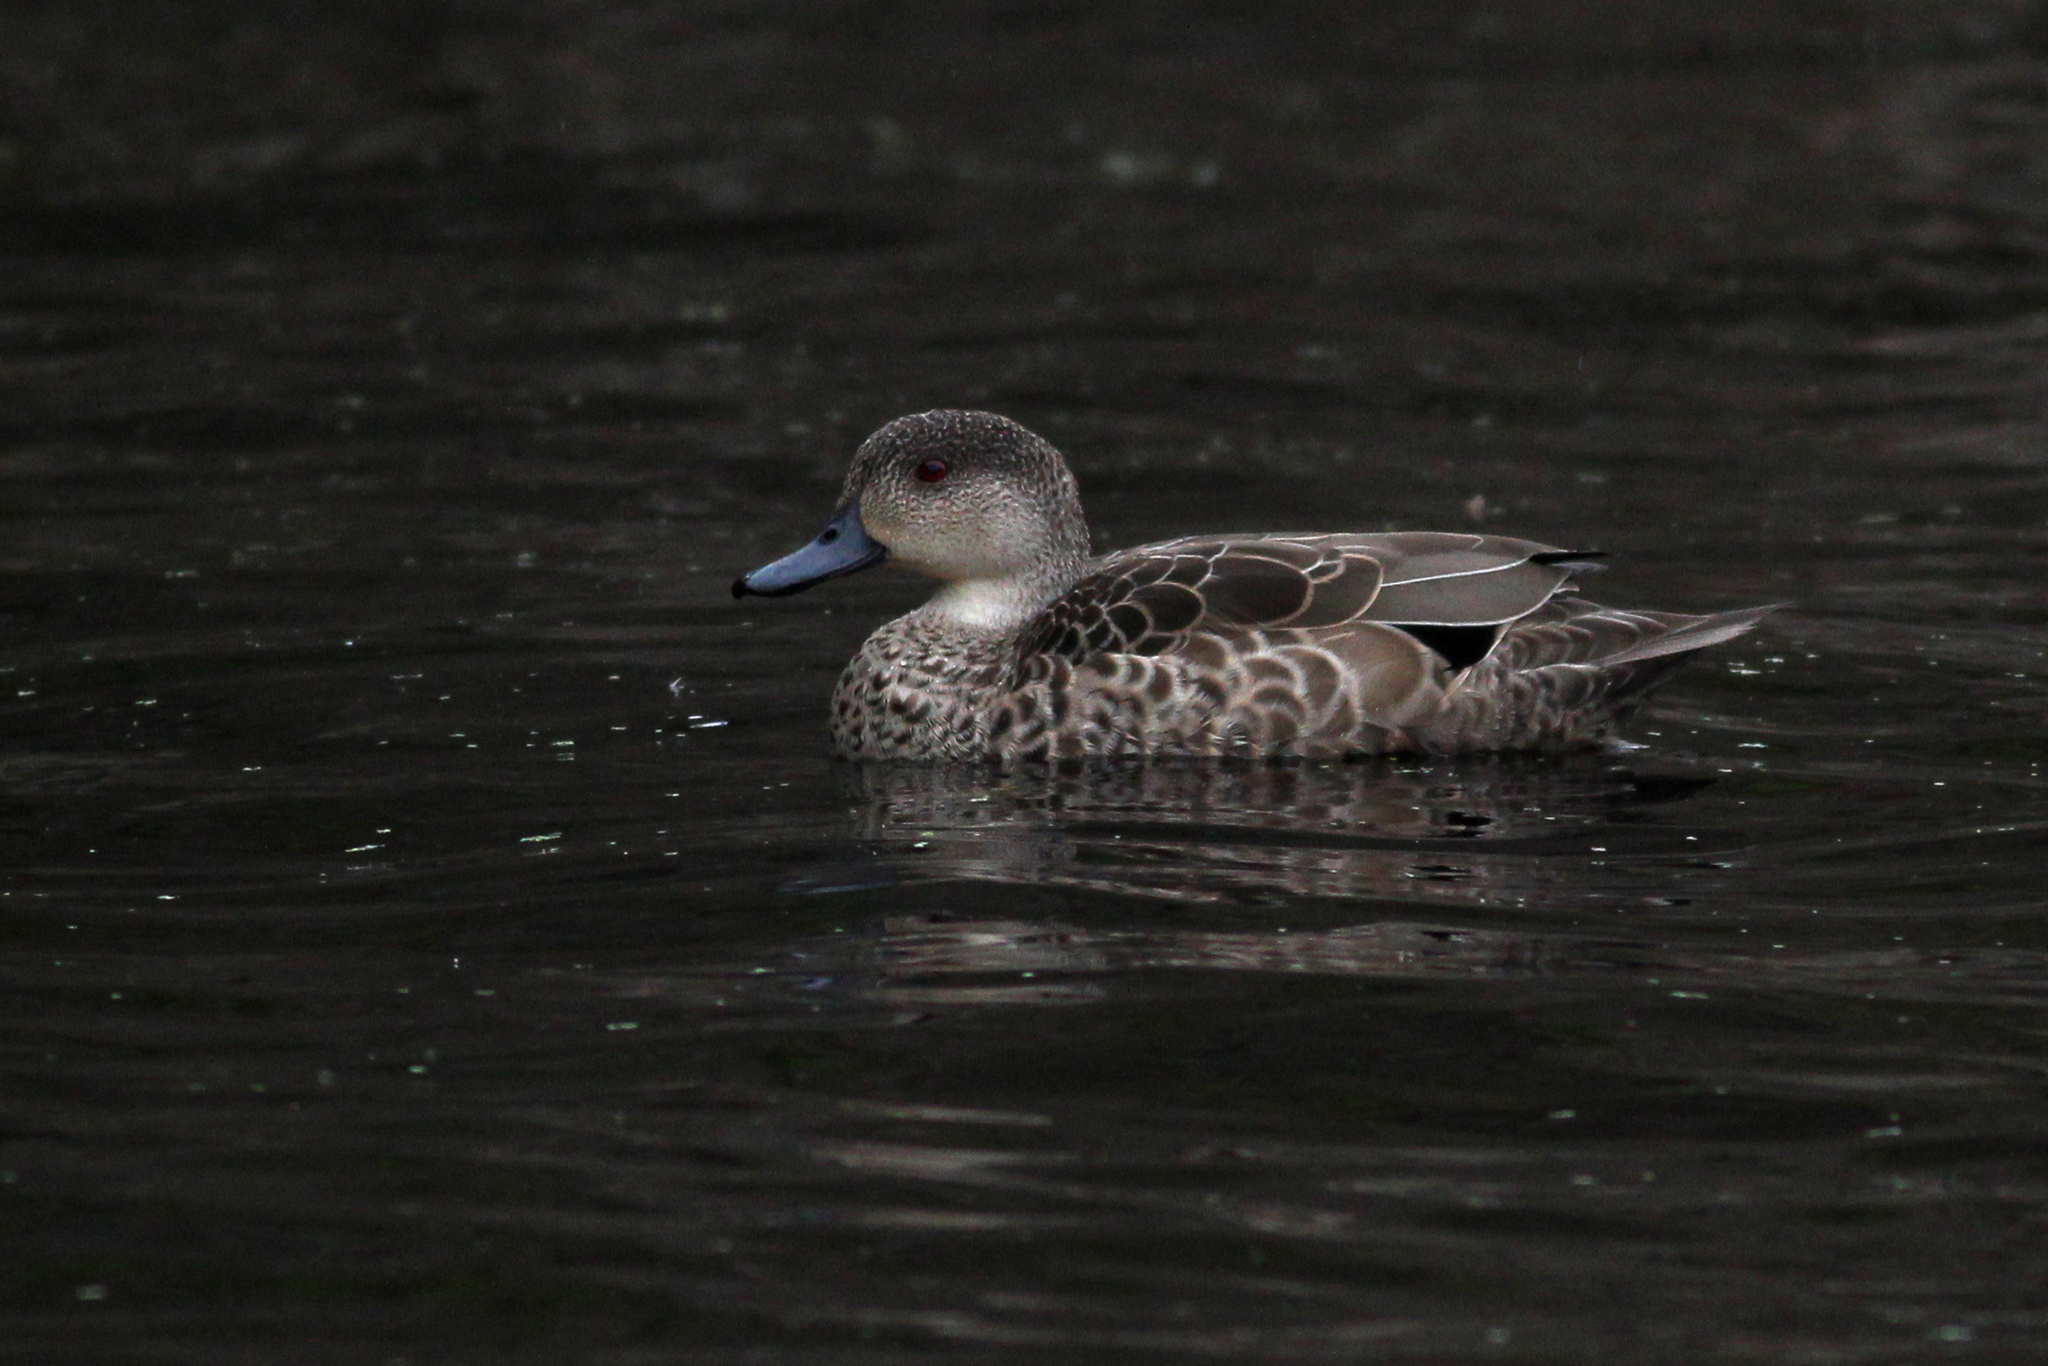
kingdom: Animalia
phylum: Chordata
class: Aves
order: Anseriformes
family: Anatidae
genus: Anas
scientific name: Anas gracilis
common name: Grey teal
